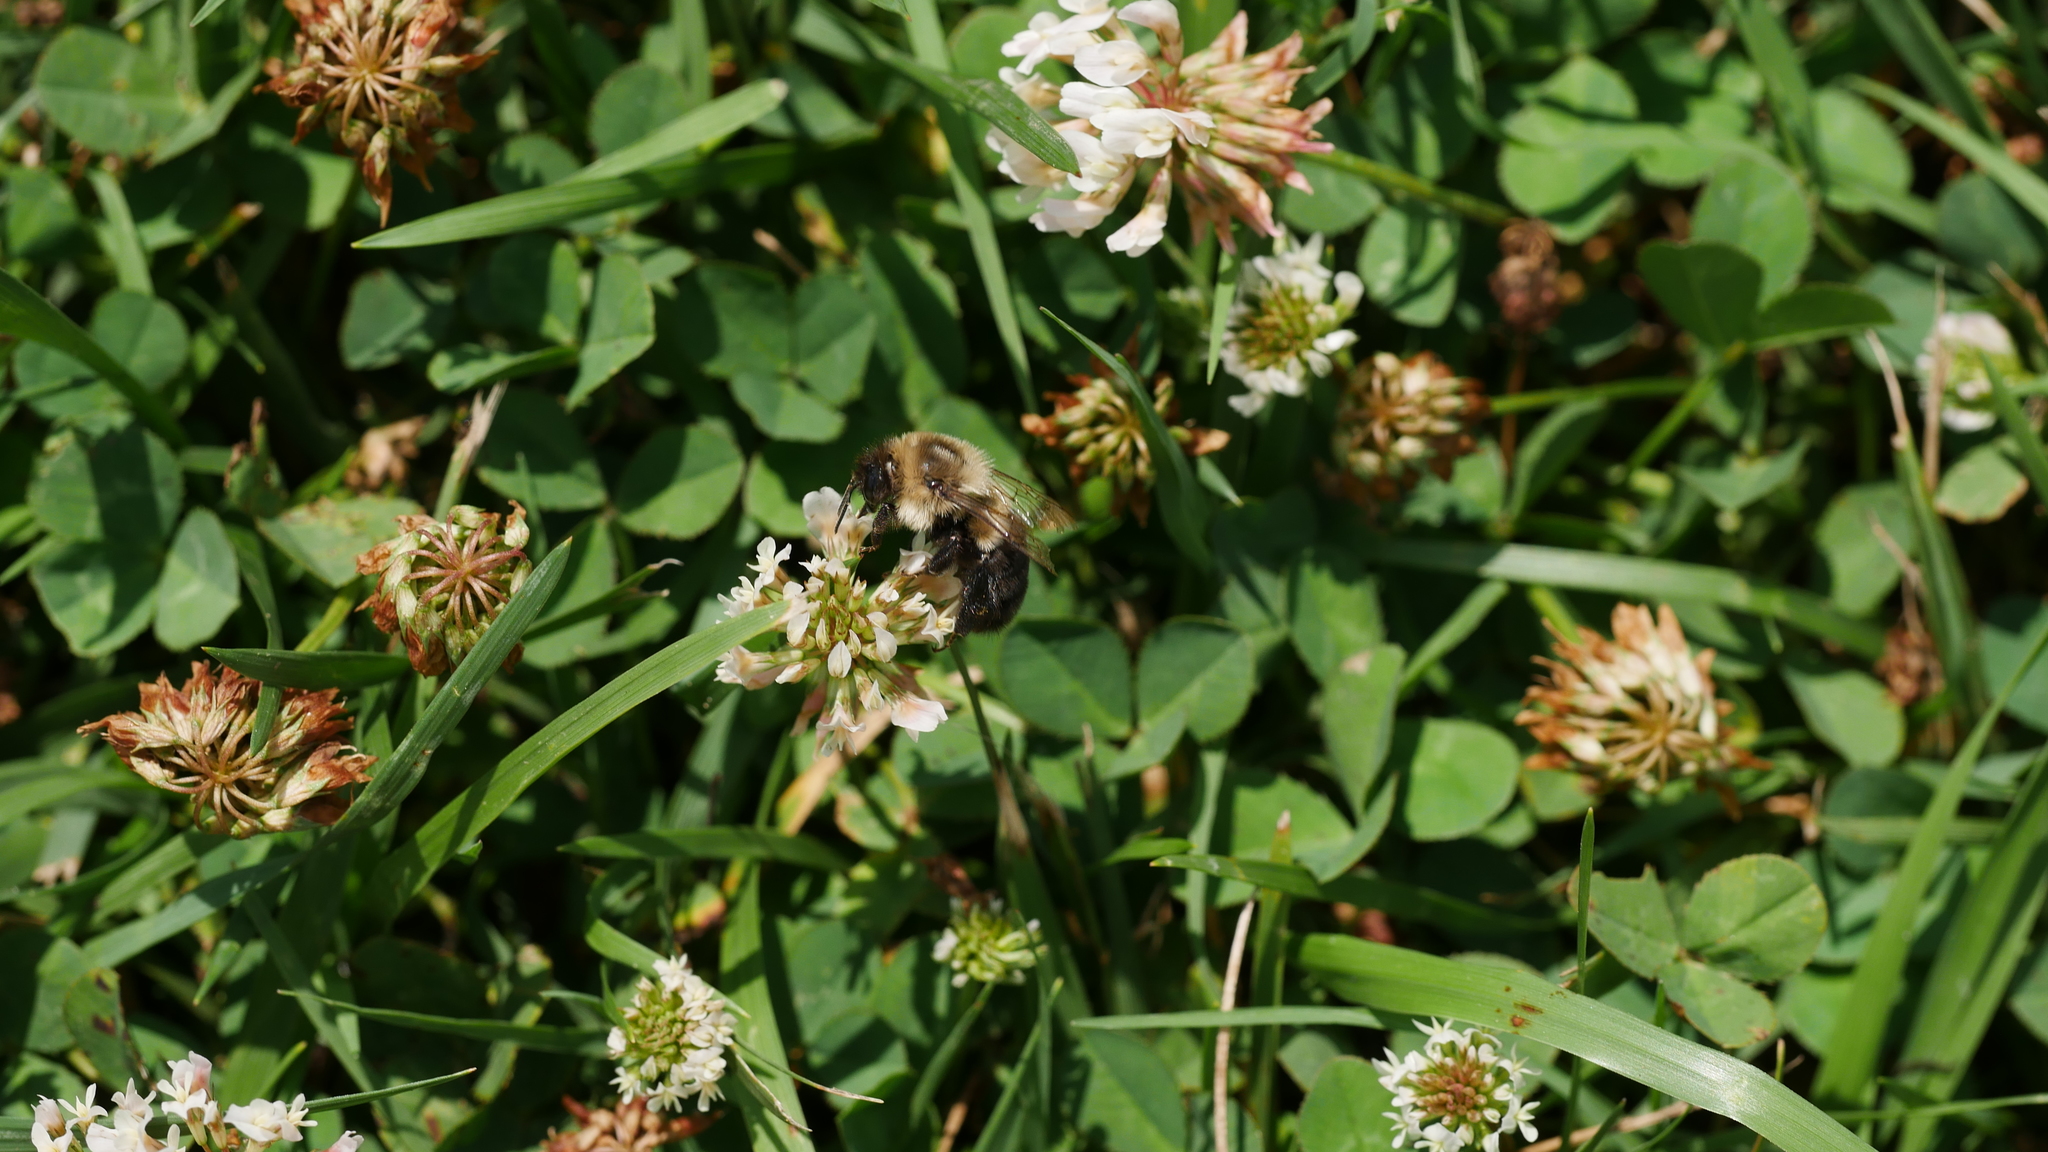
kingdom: Animalia
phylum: Arthropoda
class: Insecta
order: Hymenoptera
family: Apidae
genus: Bombus
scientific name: Bombus impatiens
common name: Common eastern bumble bee
